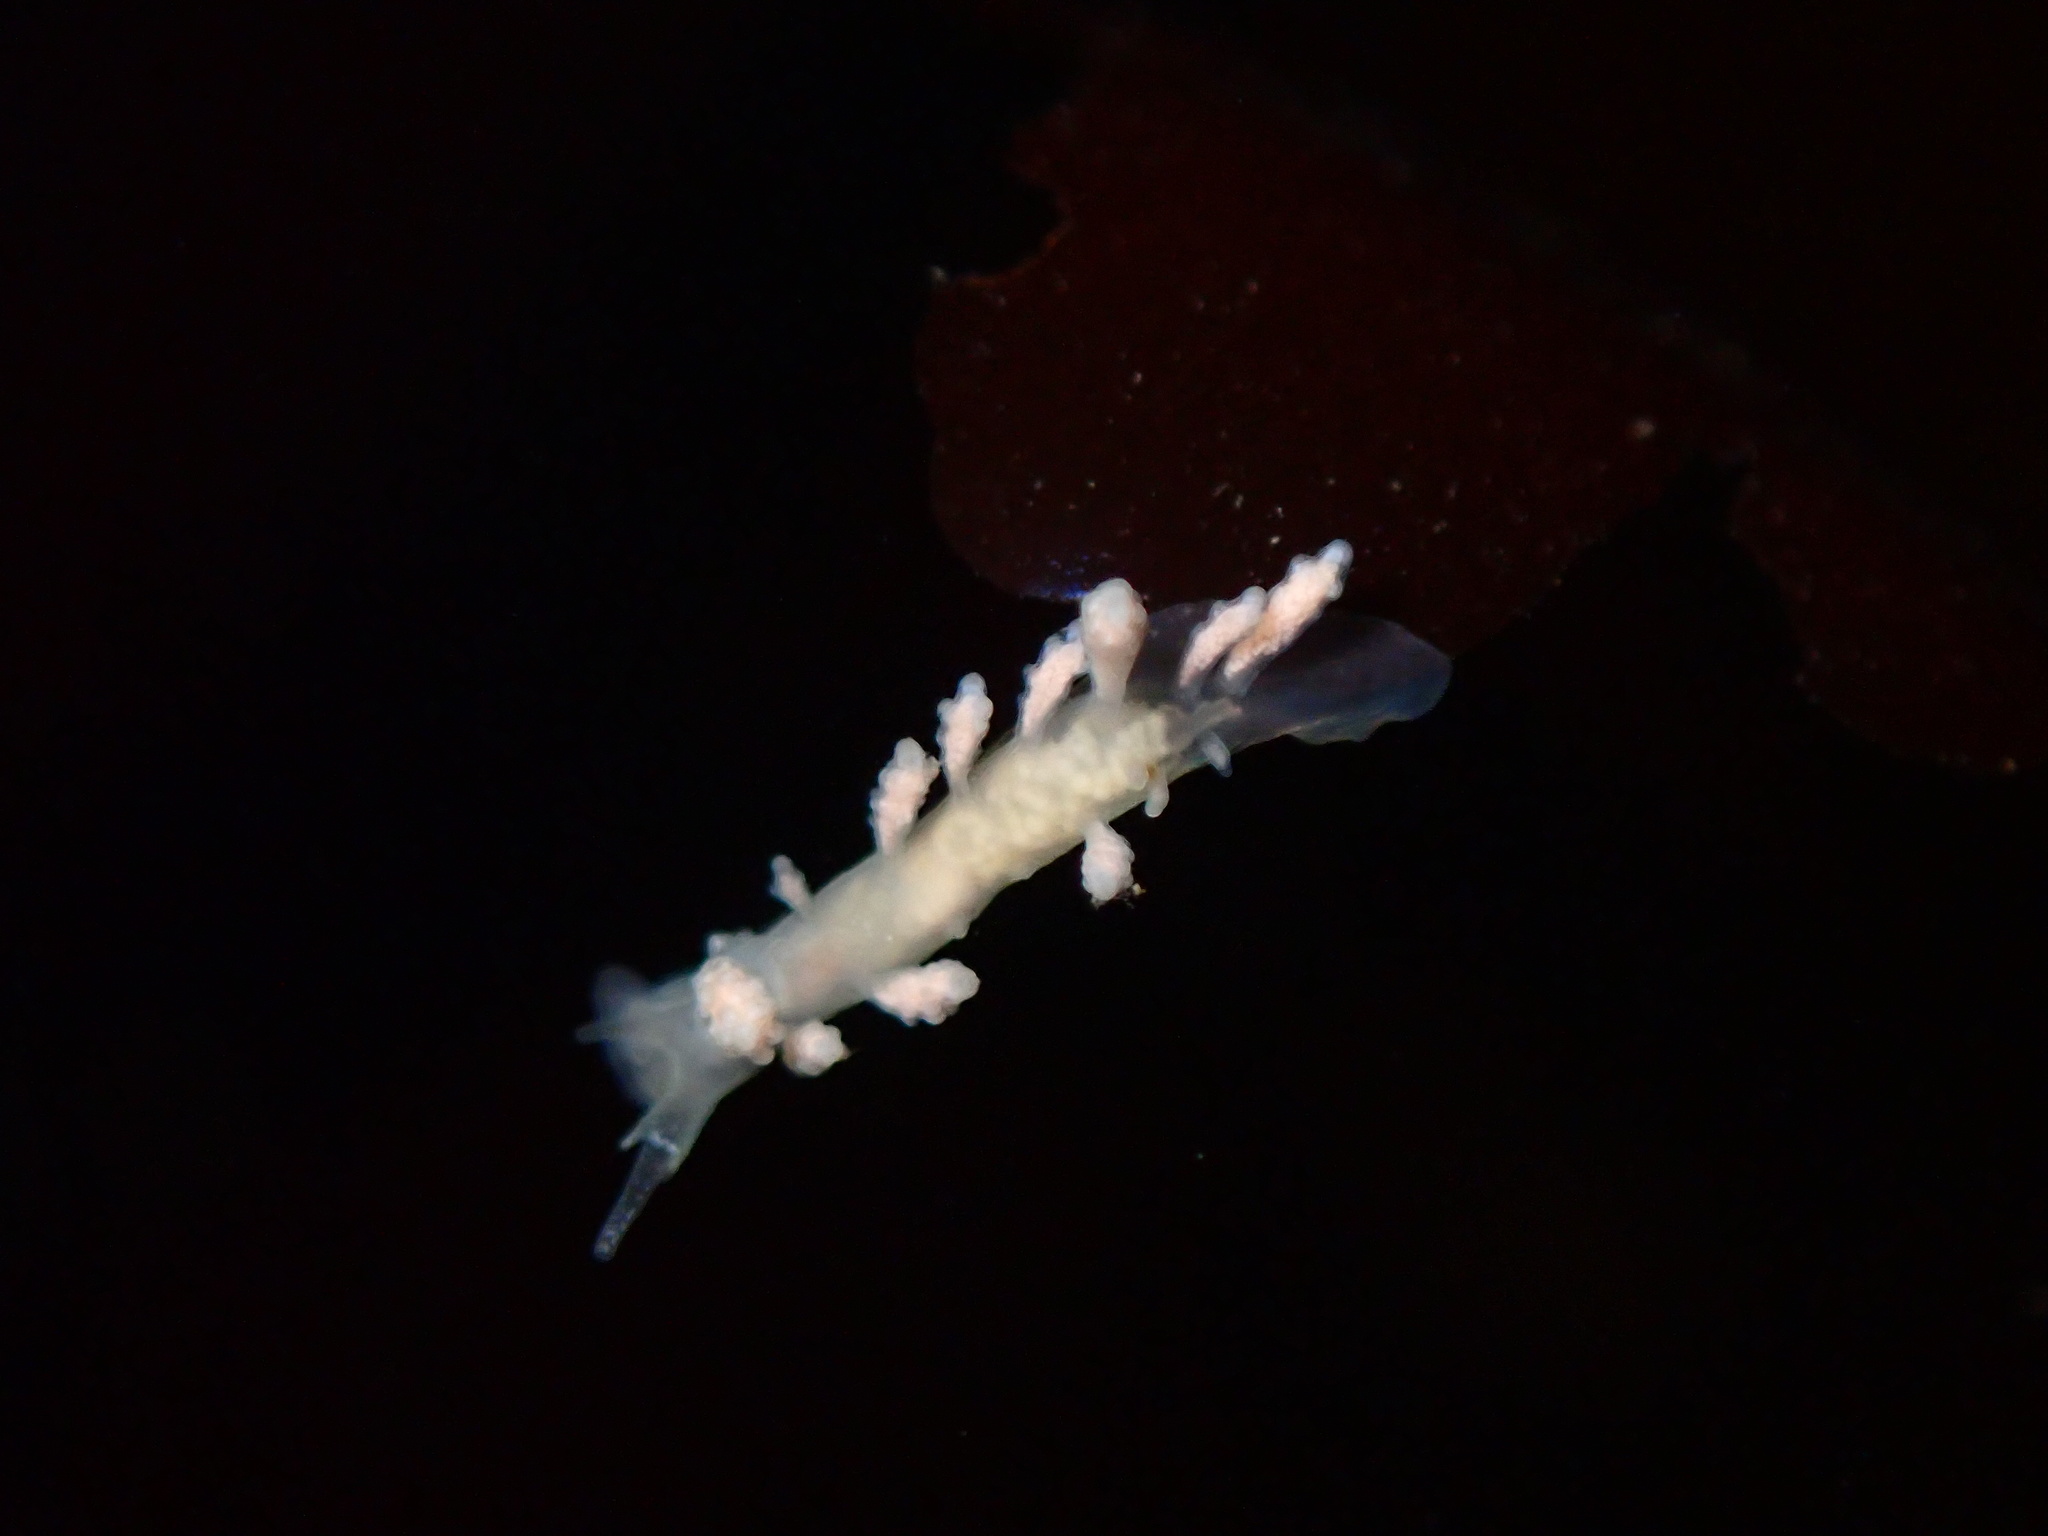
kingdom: Animalia
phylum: Mollusca
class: Gastropoda
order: Nudibranchia
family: Dotidae
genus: Doto
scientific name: Doto amyra
